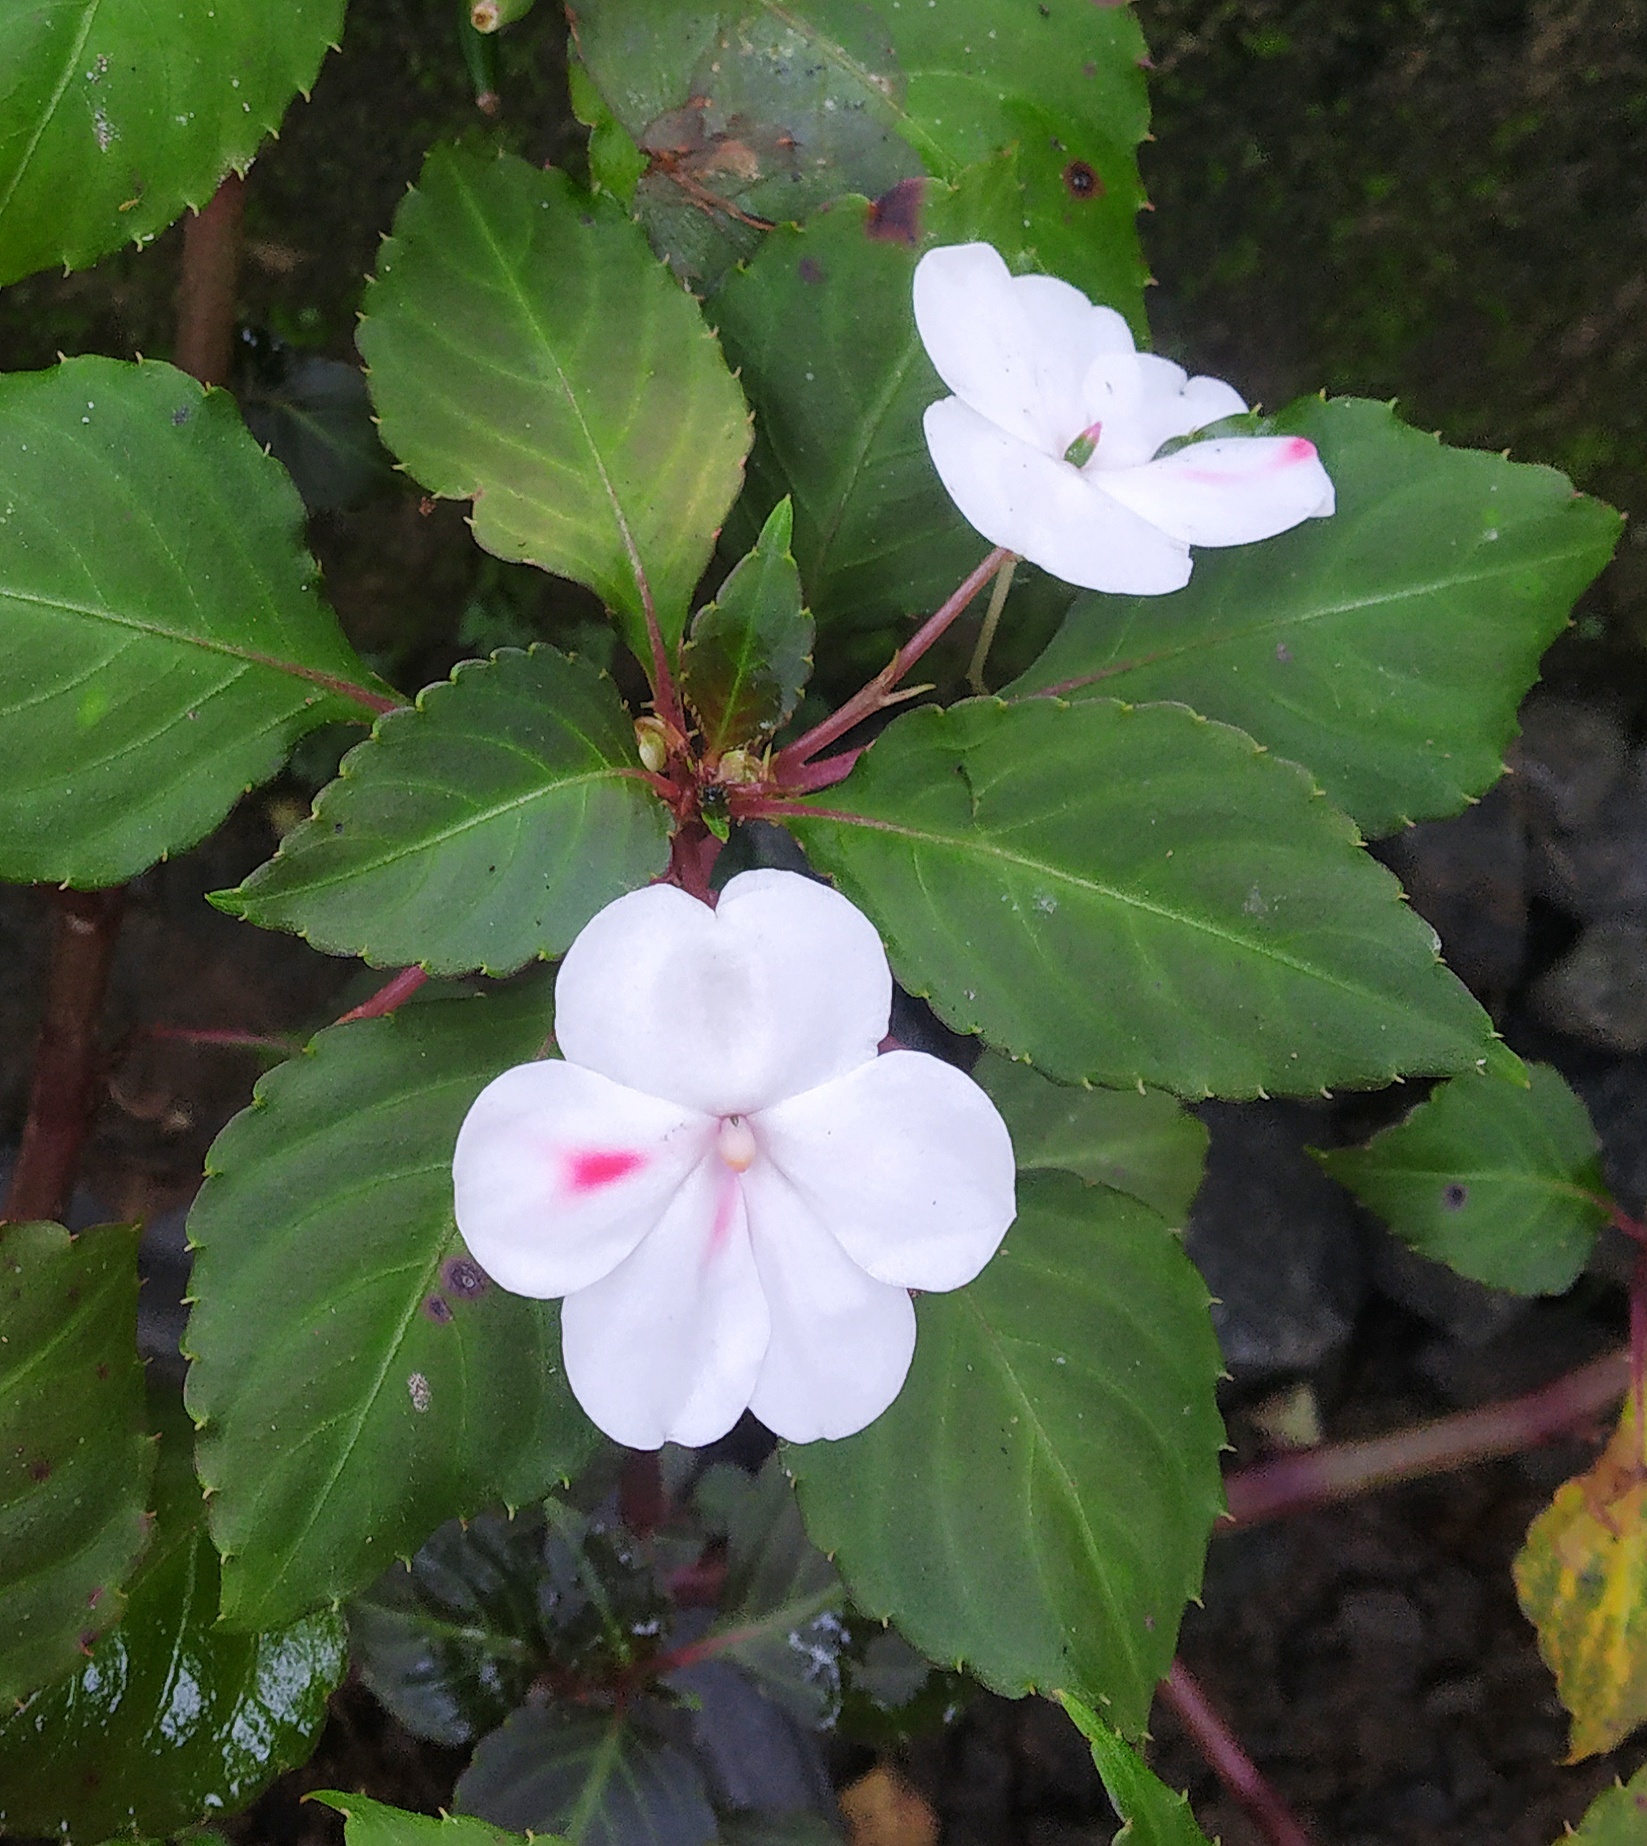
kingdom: Plantae
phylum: Tracheophyta
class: Magnoliopsida
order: Ericales
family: Balsaminaceae
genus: Impatiens
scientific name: Impatiens walleriana
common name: Buzzy lizzy
